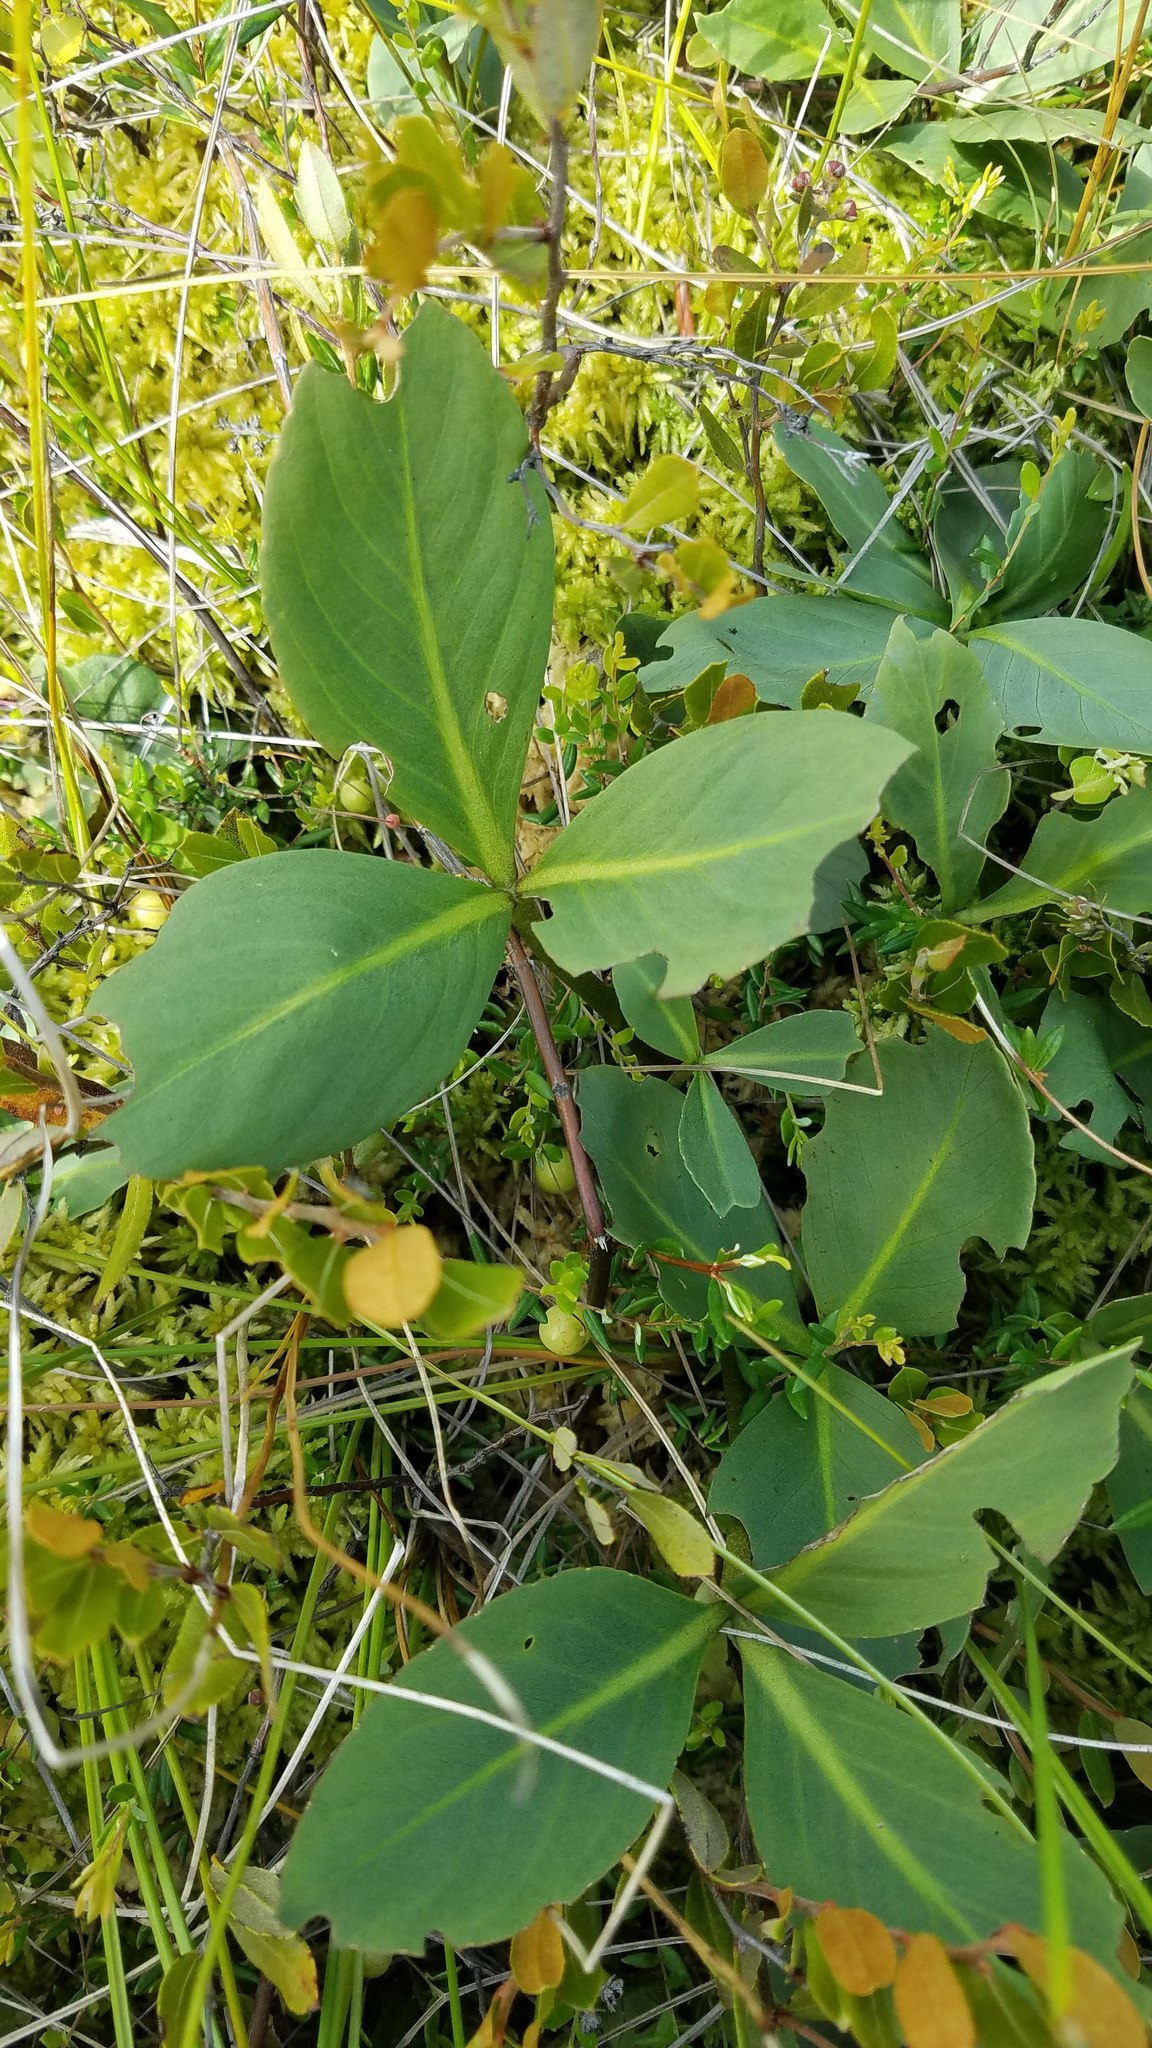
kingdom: Plantae
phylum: Tracheophyta
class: Magnoliopsida
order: Asterales
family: Menyanthaceae
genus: Menyanthes
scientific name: Menyanthes trifoliata
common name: Bogbean
